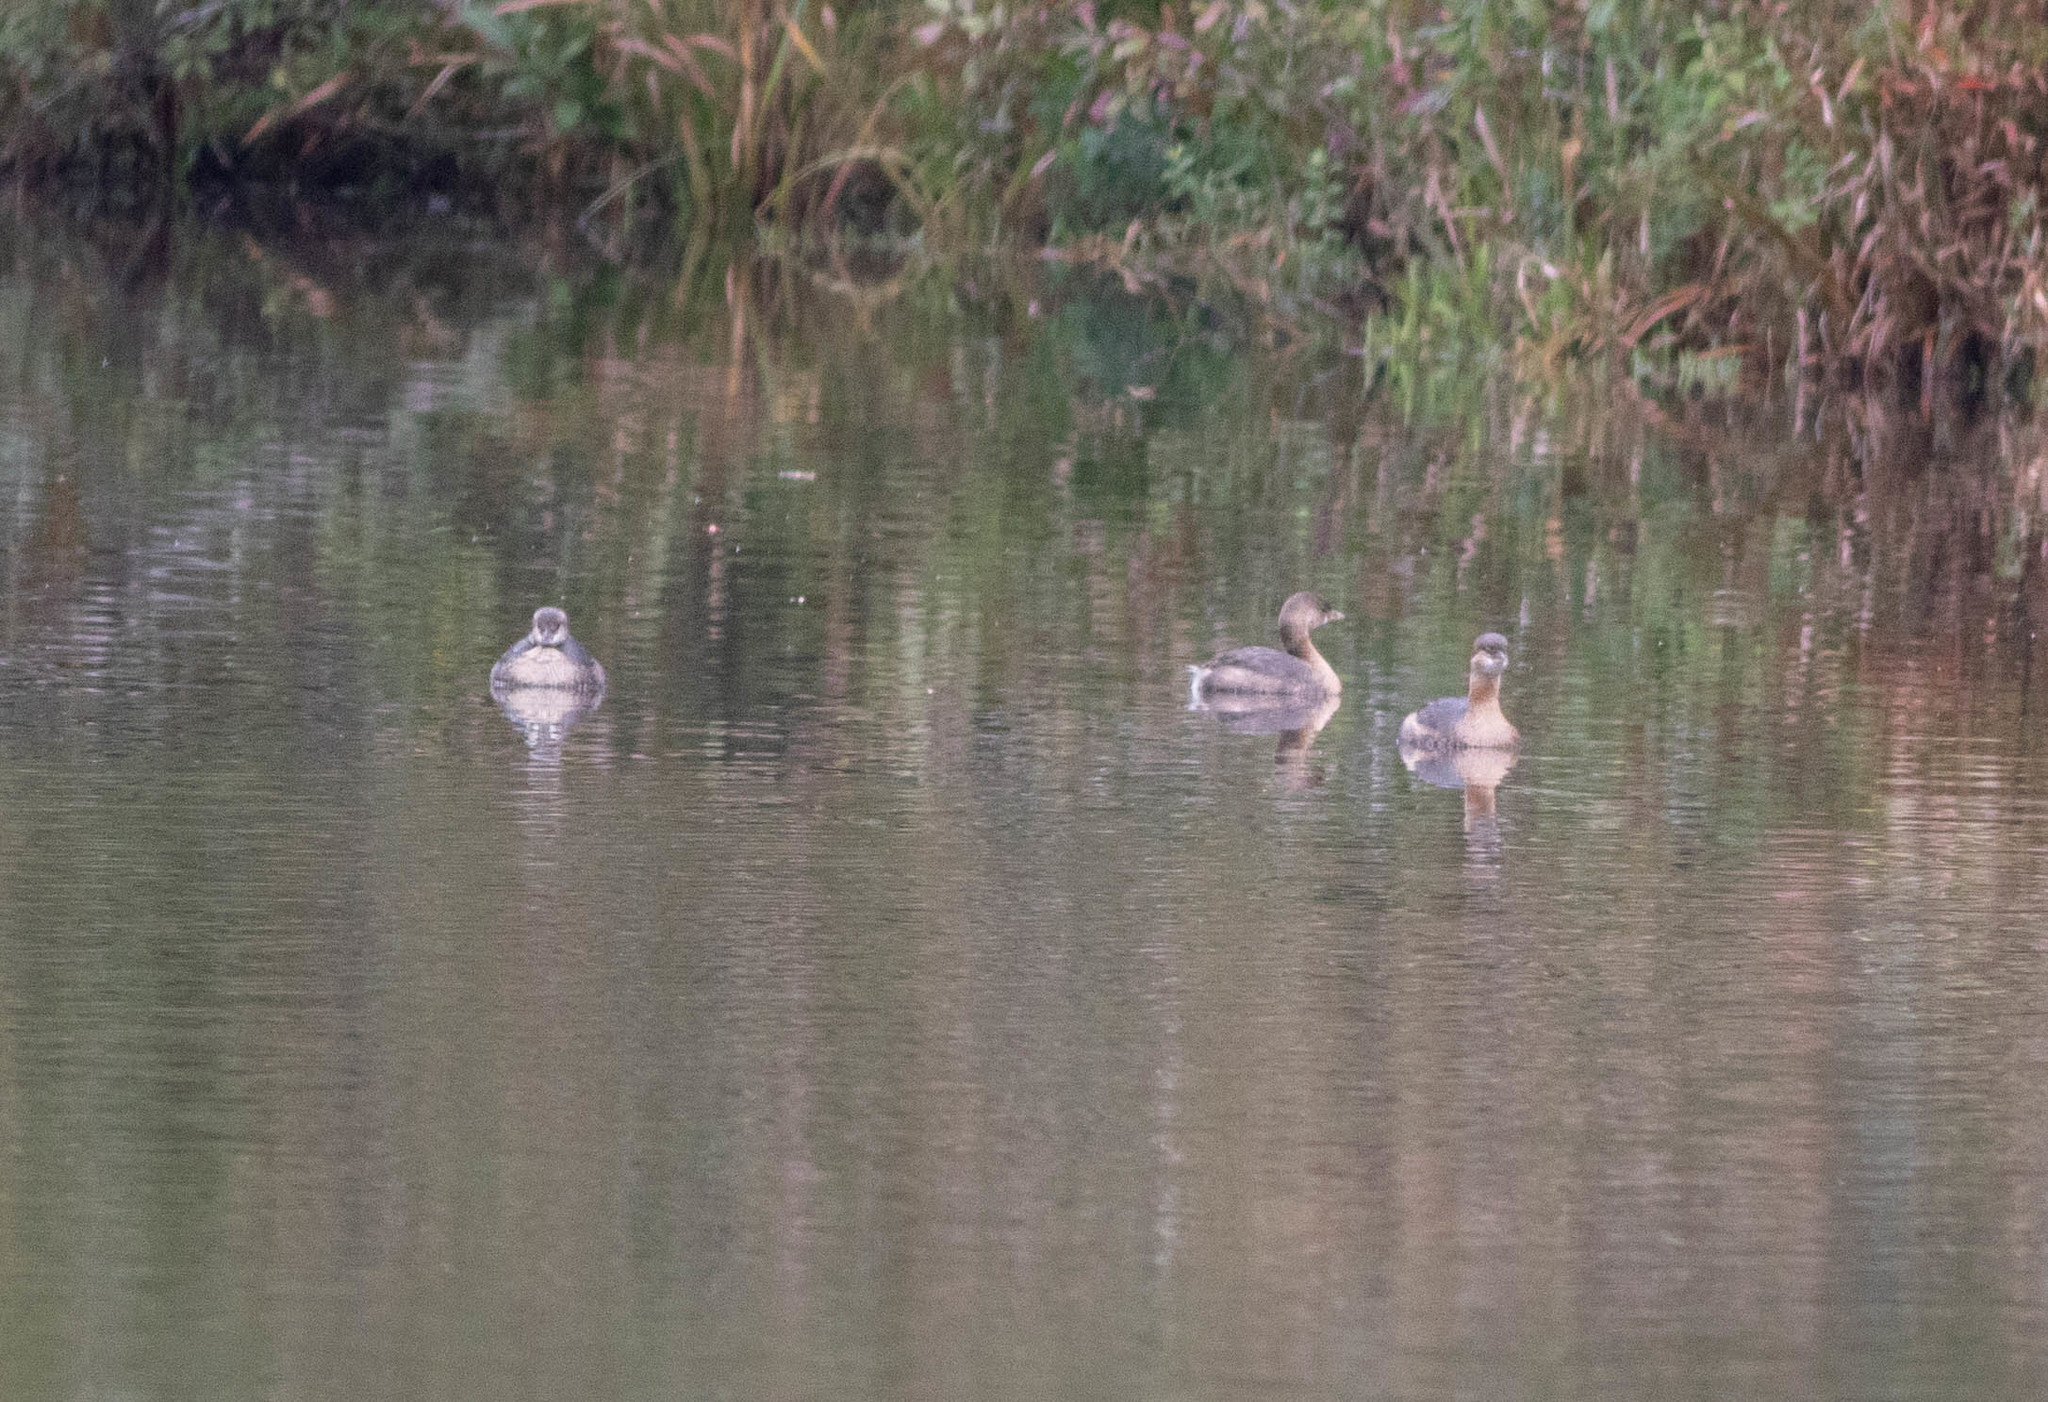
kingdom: Animalia
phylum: Chordata
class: Aves
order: Podicipediformes
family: Podicipedidae
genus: Podilymbus
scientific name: Podilymbus podiceps
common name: Pied-billed grebe
